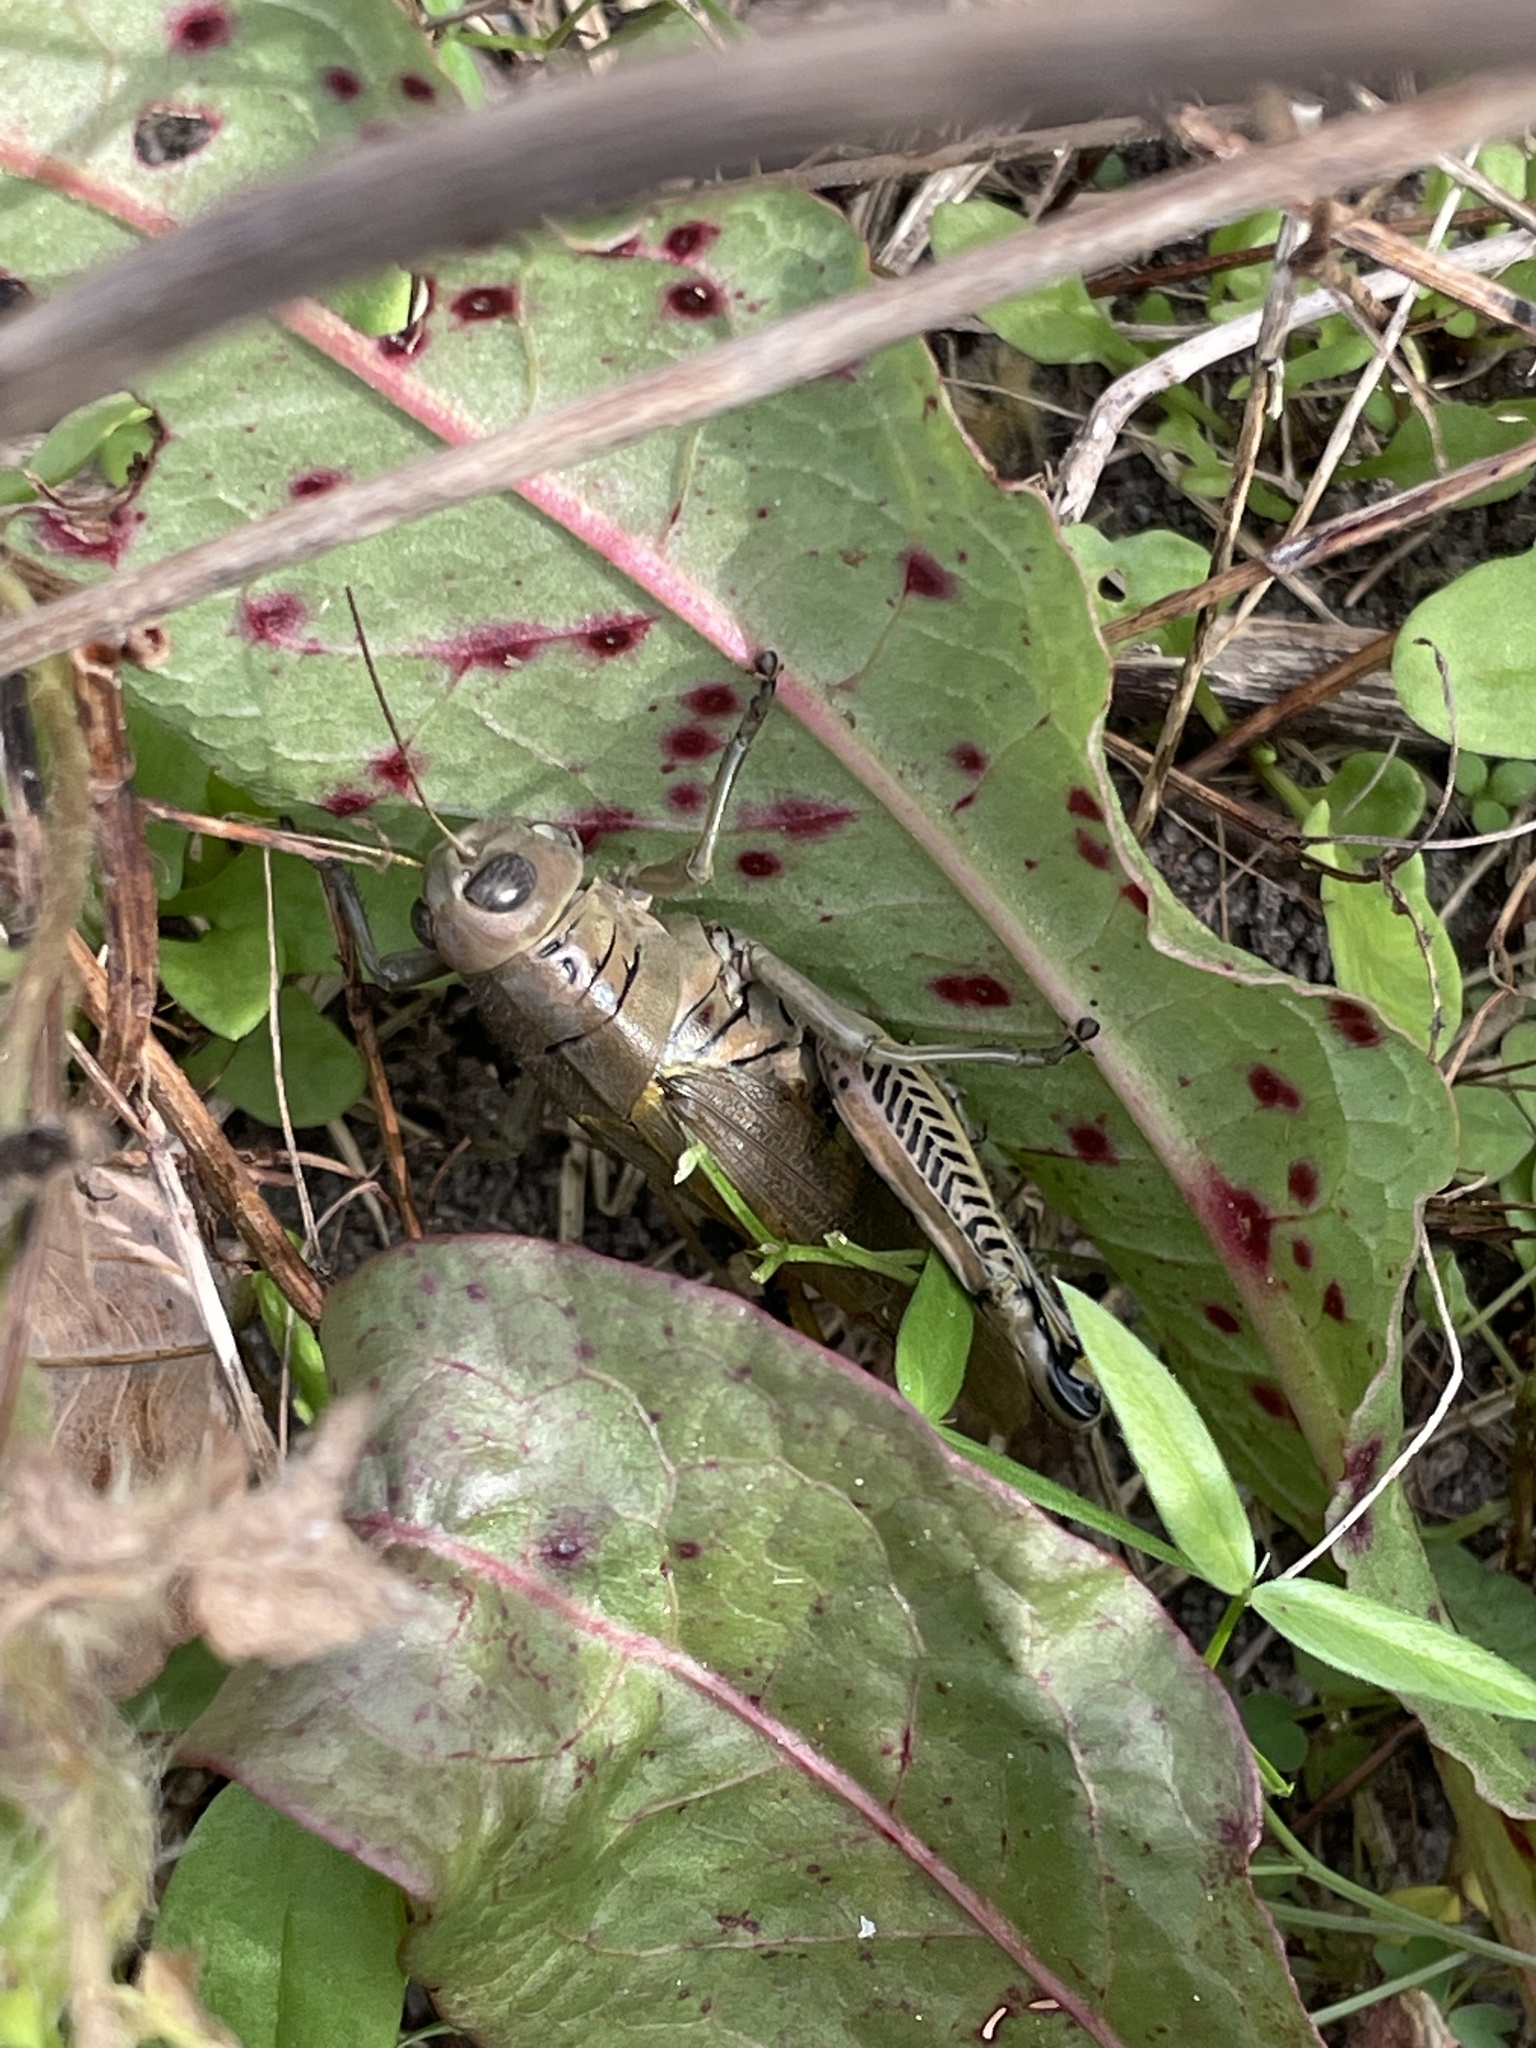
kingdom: Animalia
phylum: Arthropoda
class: Insecta
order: Orthoptera
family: Acrididae
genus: Melanoplus
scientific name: Melanoplus differentialis
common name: Differential grasshopper
